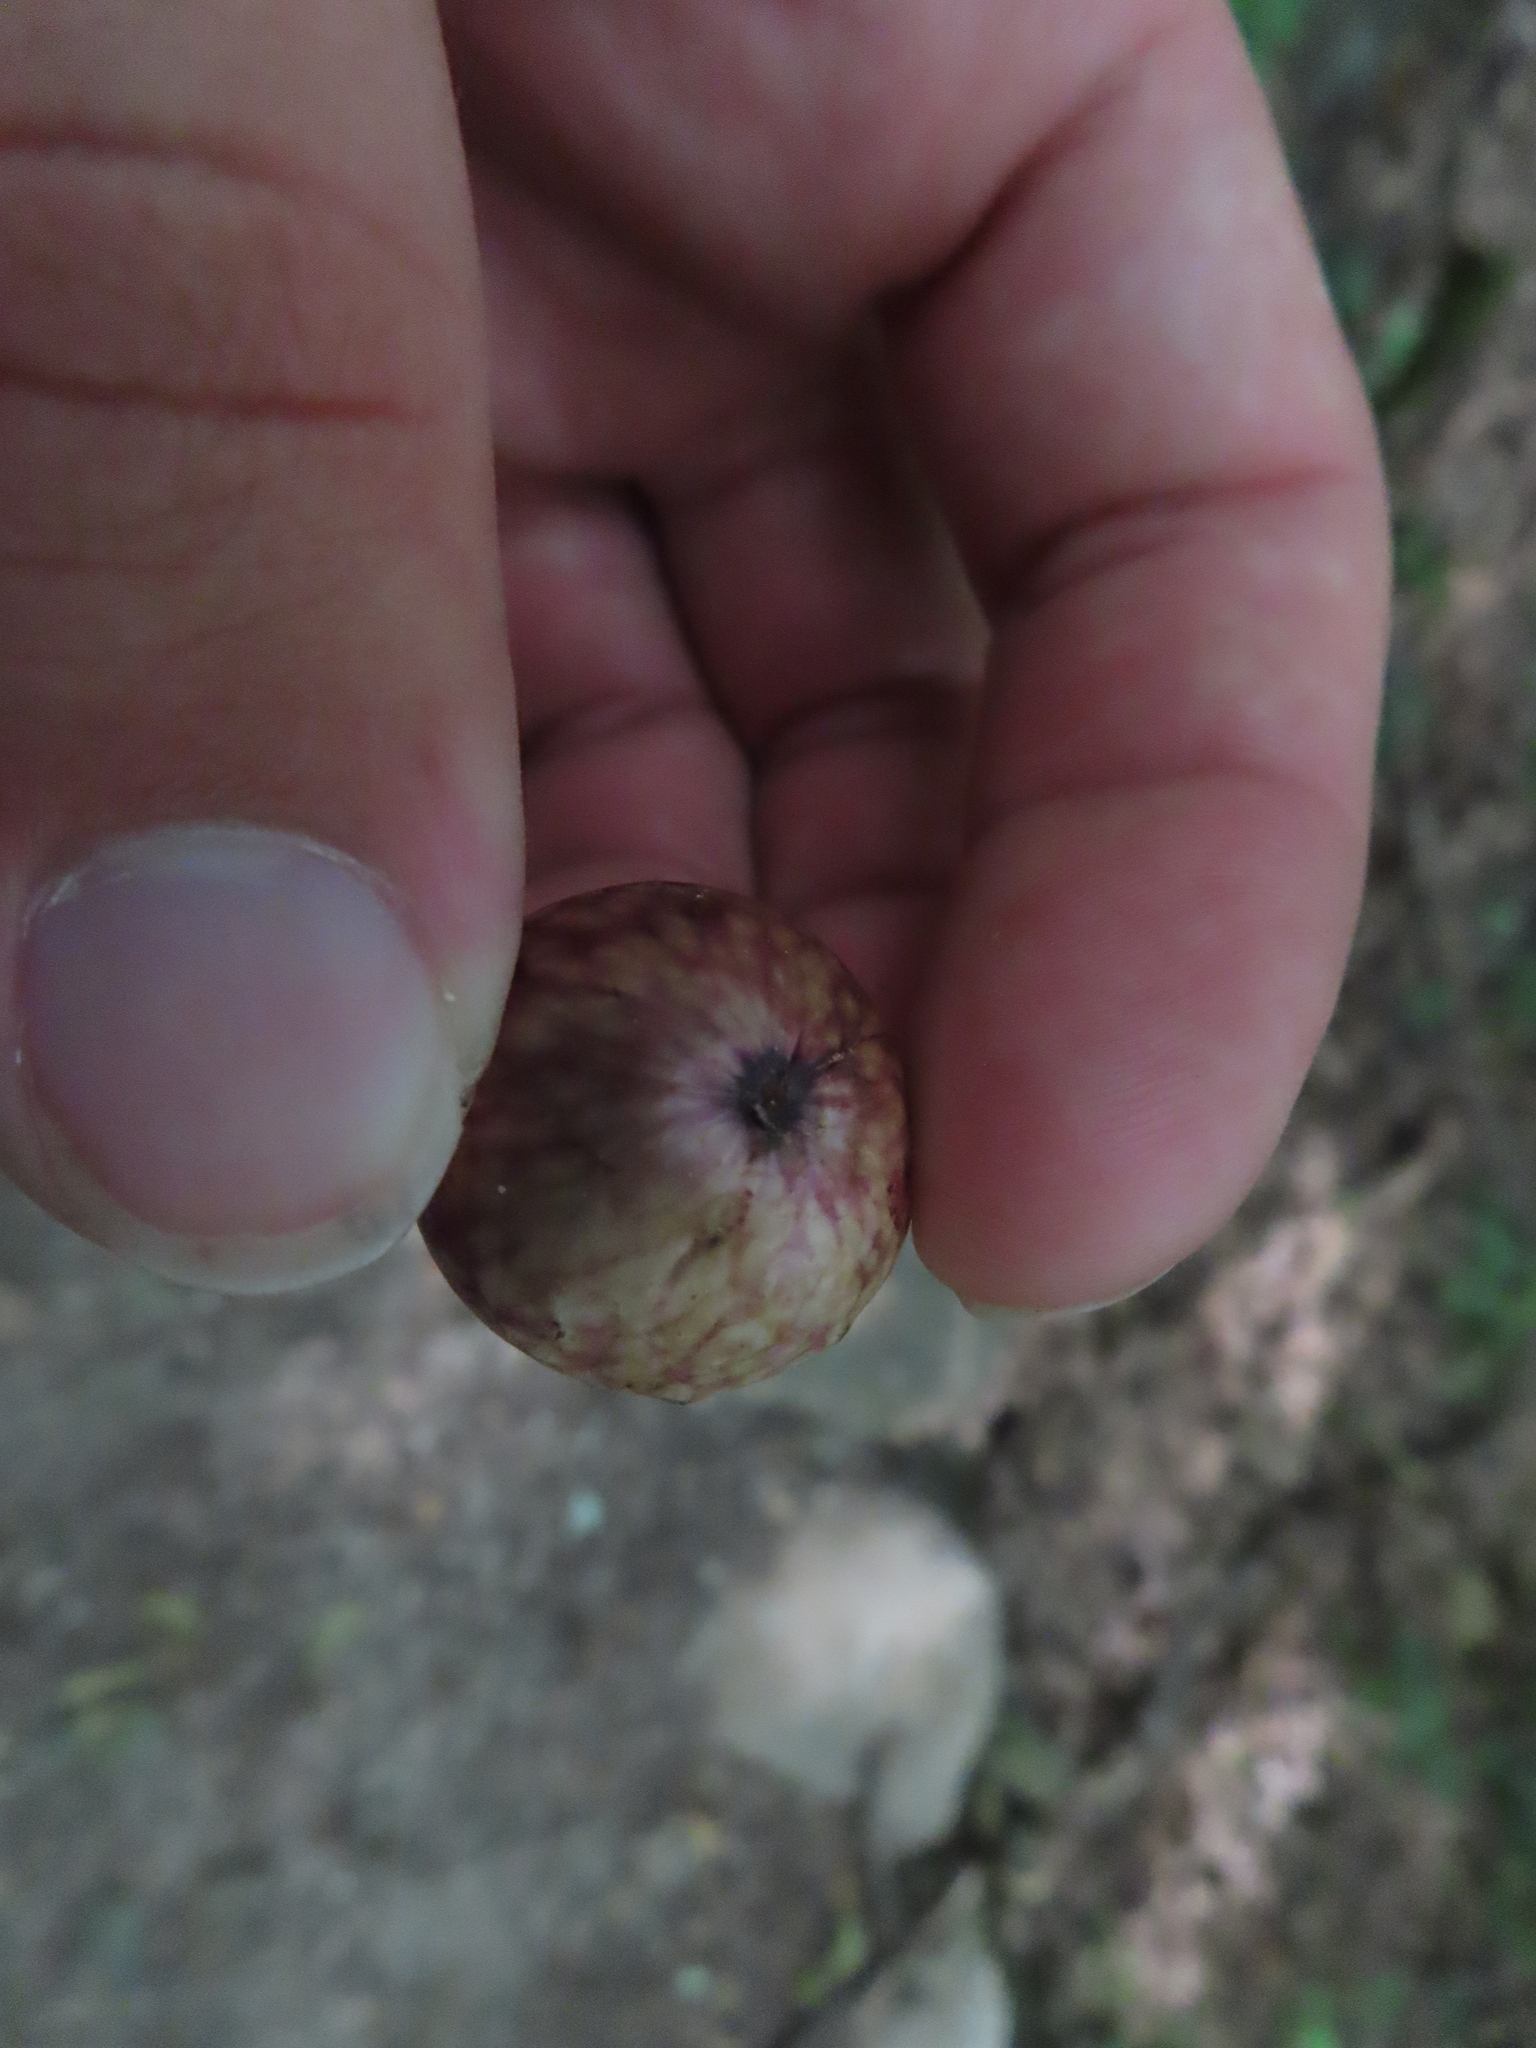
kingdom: Animalia
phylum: Arthropoda
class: Insecta
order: Hymenoptera
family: Cynipidae
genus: Amphibolips
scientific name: Amphibolips
